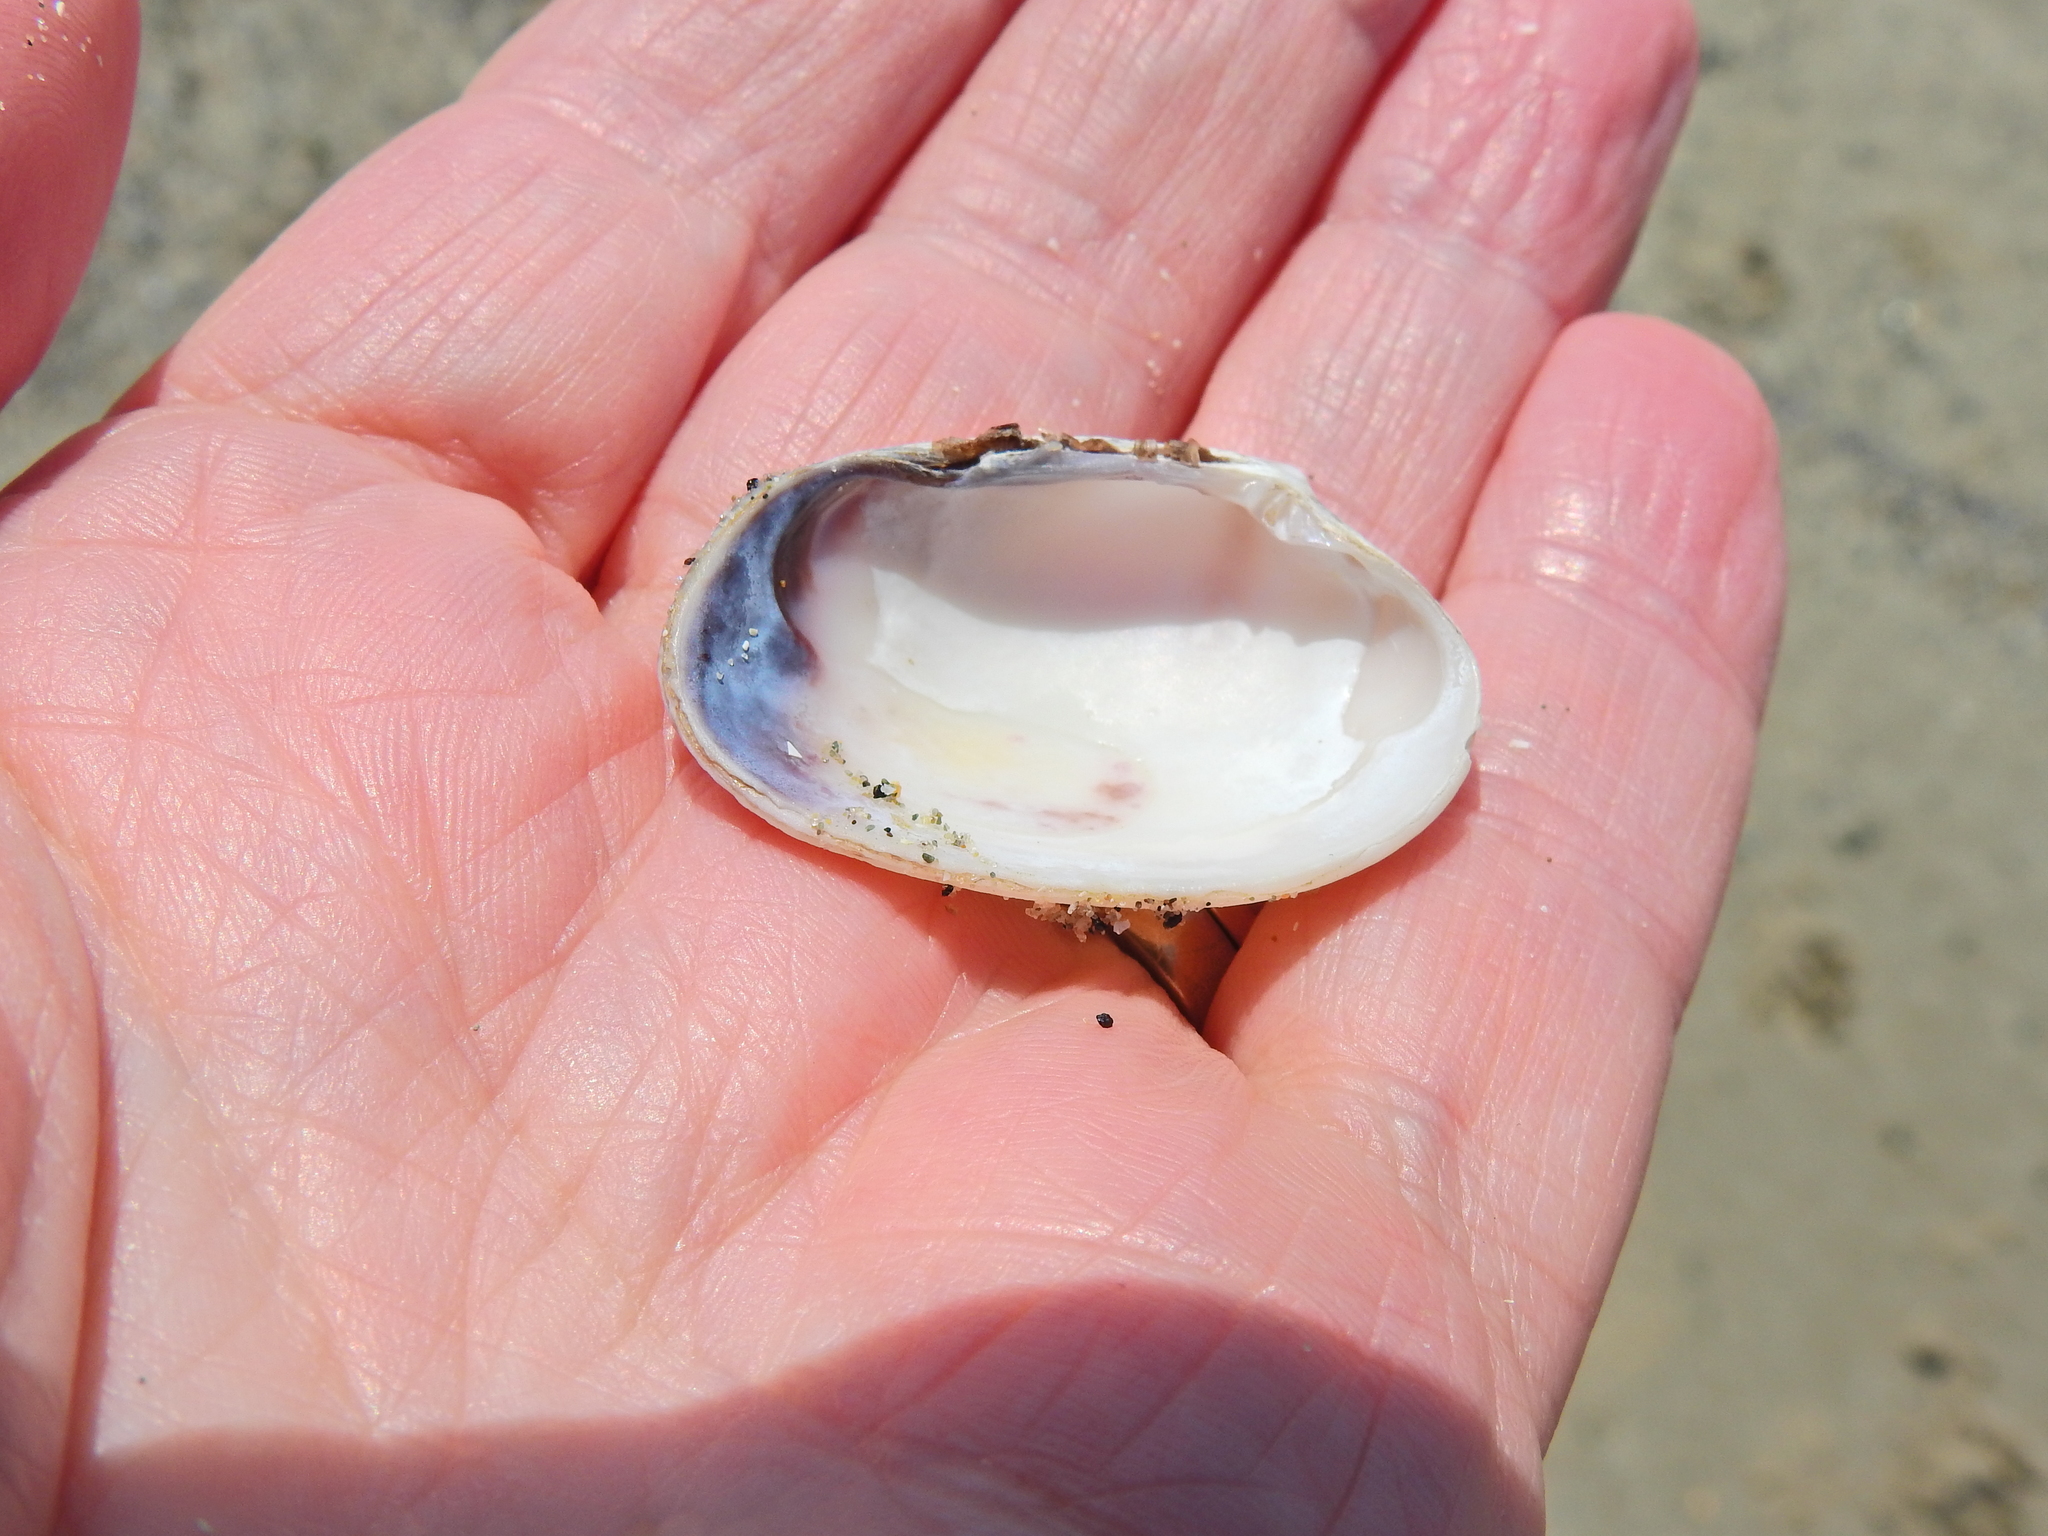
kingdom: Animalia
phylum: Mollusca
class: Bivalvia
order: Venerida
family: Veneridae
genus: Venerupis
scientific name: Venerupis corrugata
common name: Pullet carpet shell
